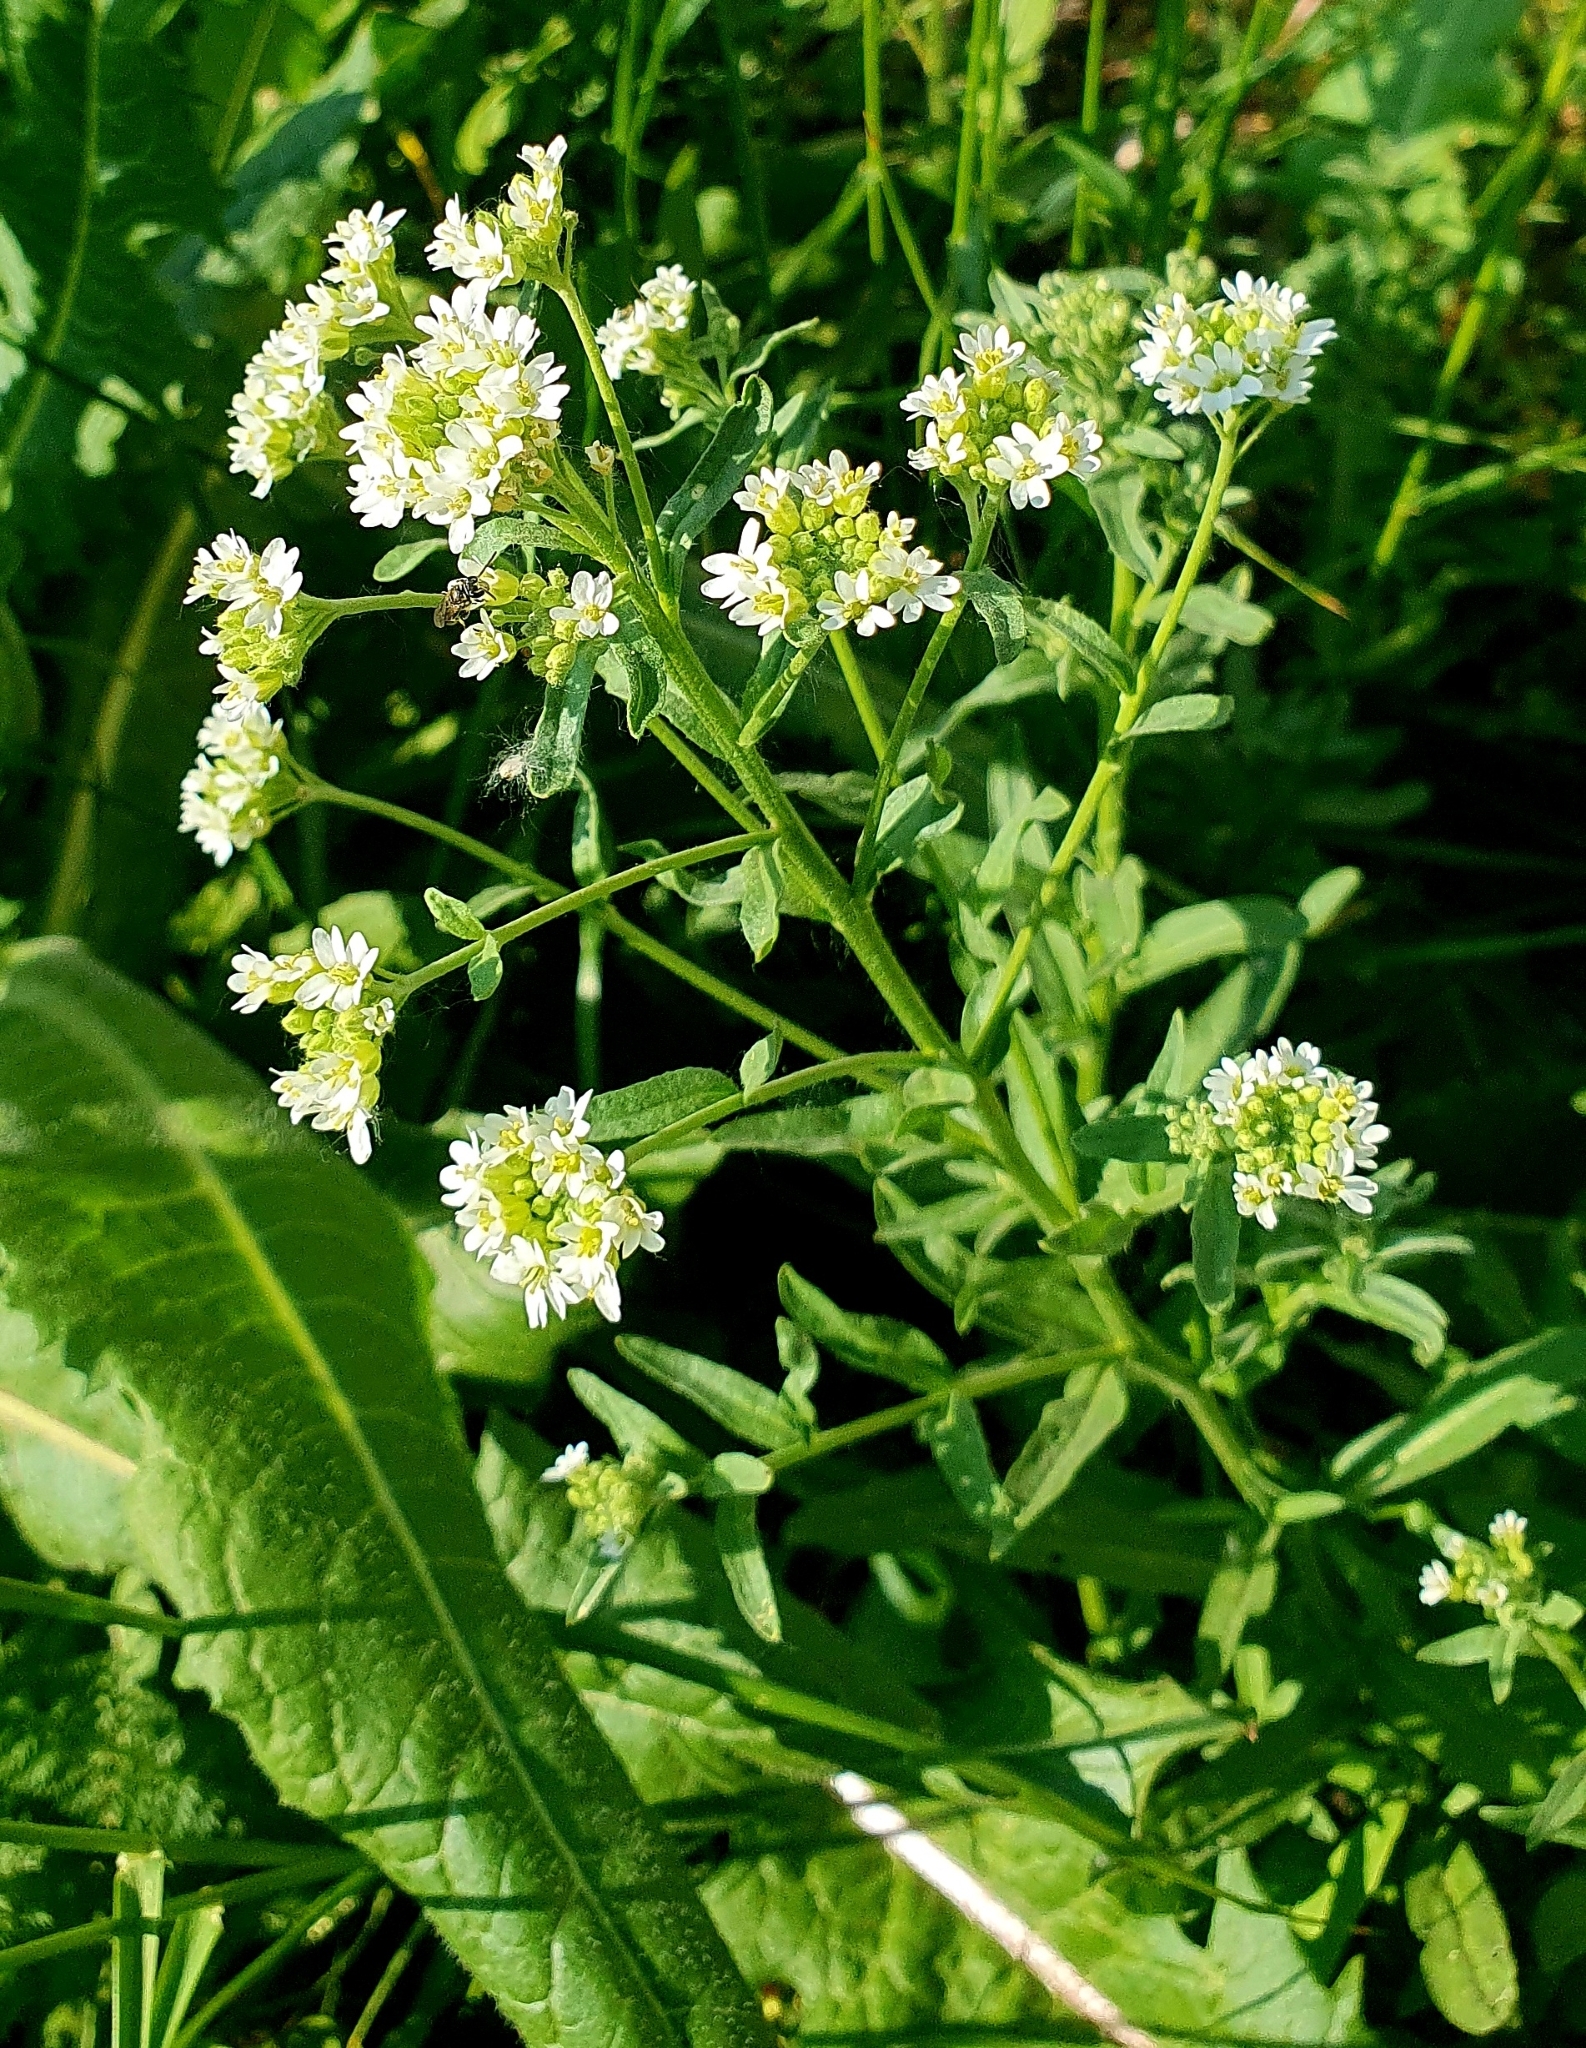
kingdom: Plantae
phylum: Tracheophyta
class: Magnoliopsida
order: Brassicales
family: Brassicaceae
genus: Berteroa
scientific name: Berteroa incana
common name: Hoary alison
